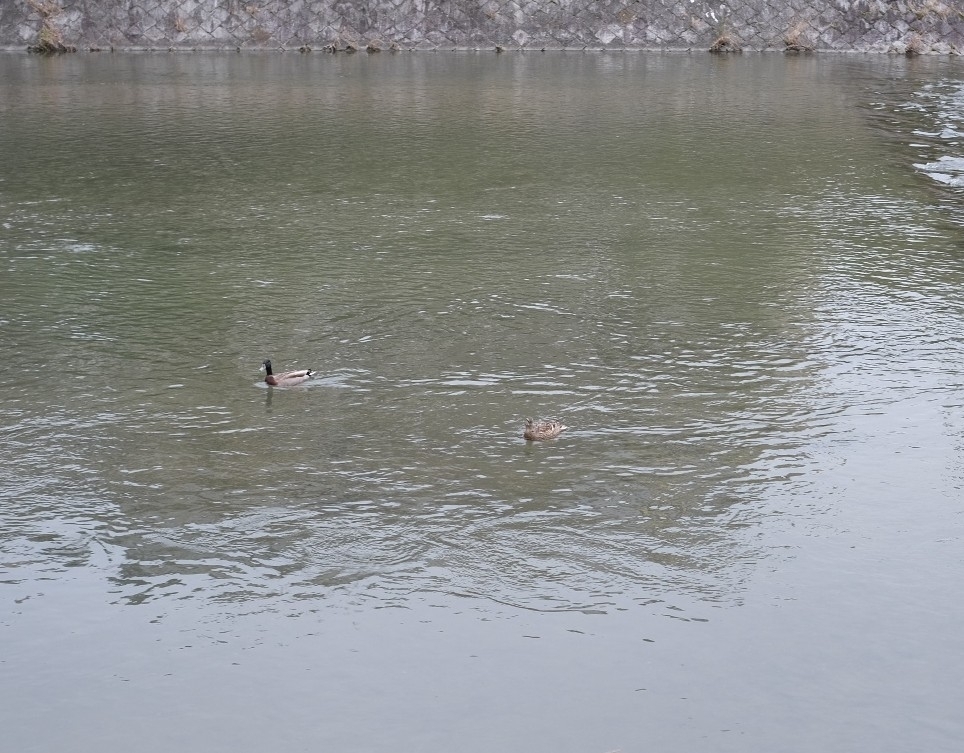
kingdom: Animalia
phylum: Chordata
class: Aves
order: Anseriformes
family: Anatidae
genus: Anas
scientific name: Anas platyrhynchos
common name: Mallard
